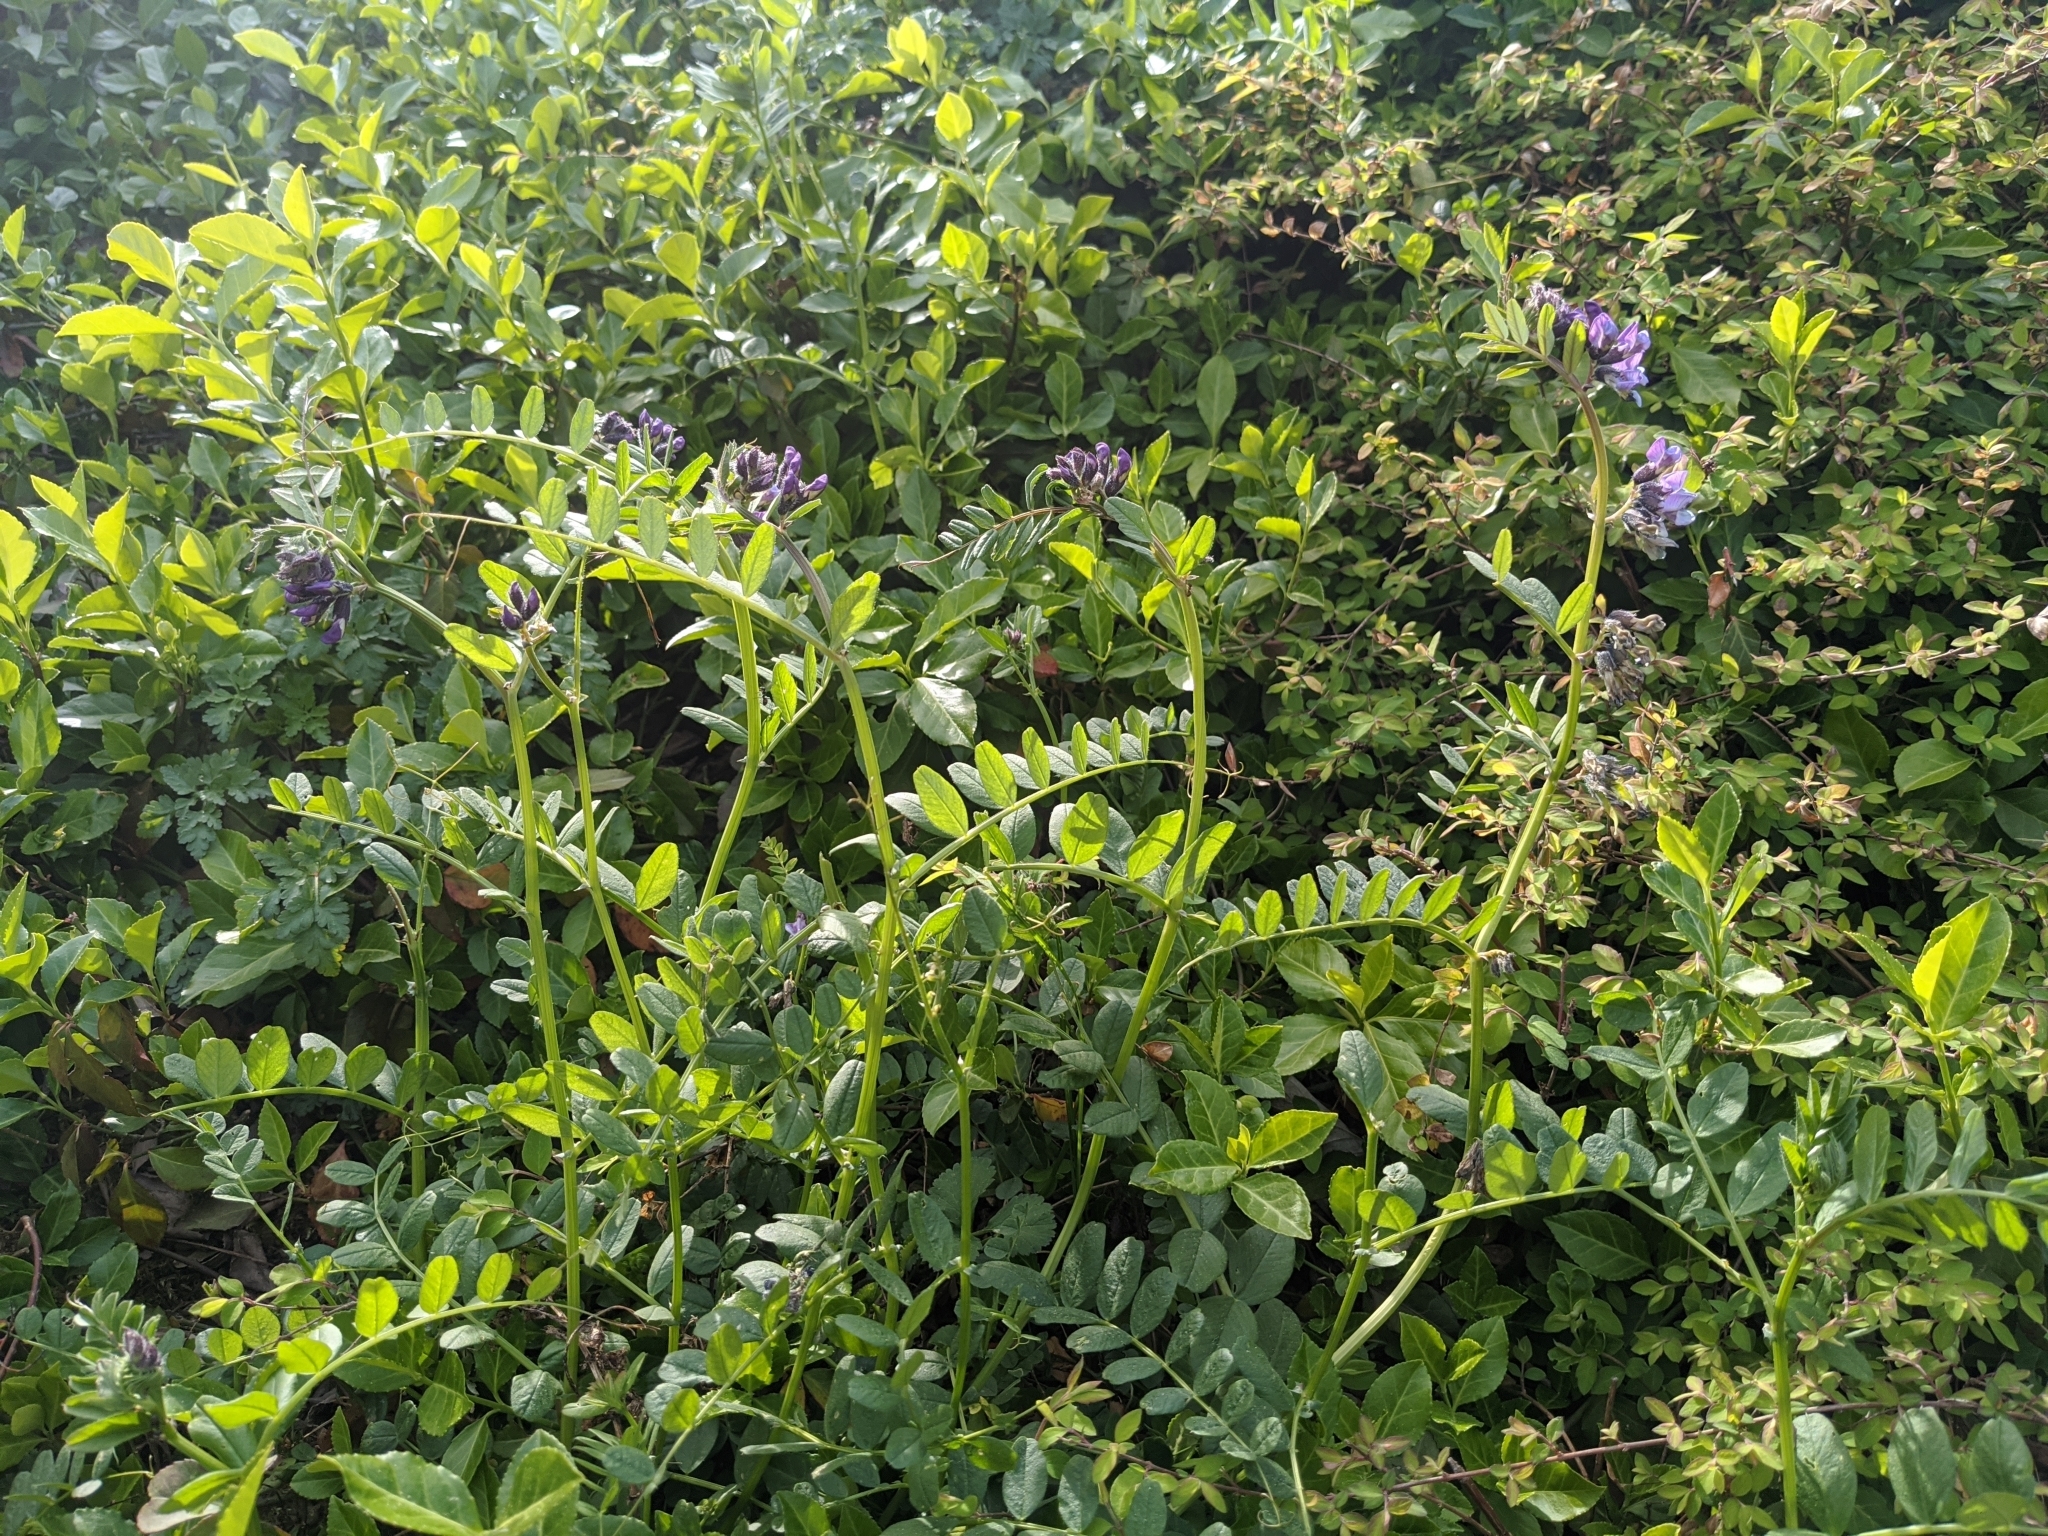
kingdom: Plantae
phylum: Tracheophyta
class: Magnoliopsida
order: Fabales
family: Fabaceae
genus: Vicia
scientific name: Vicia sepium
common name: Bush vetch
